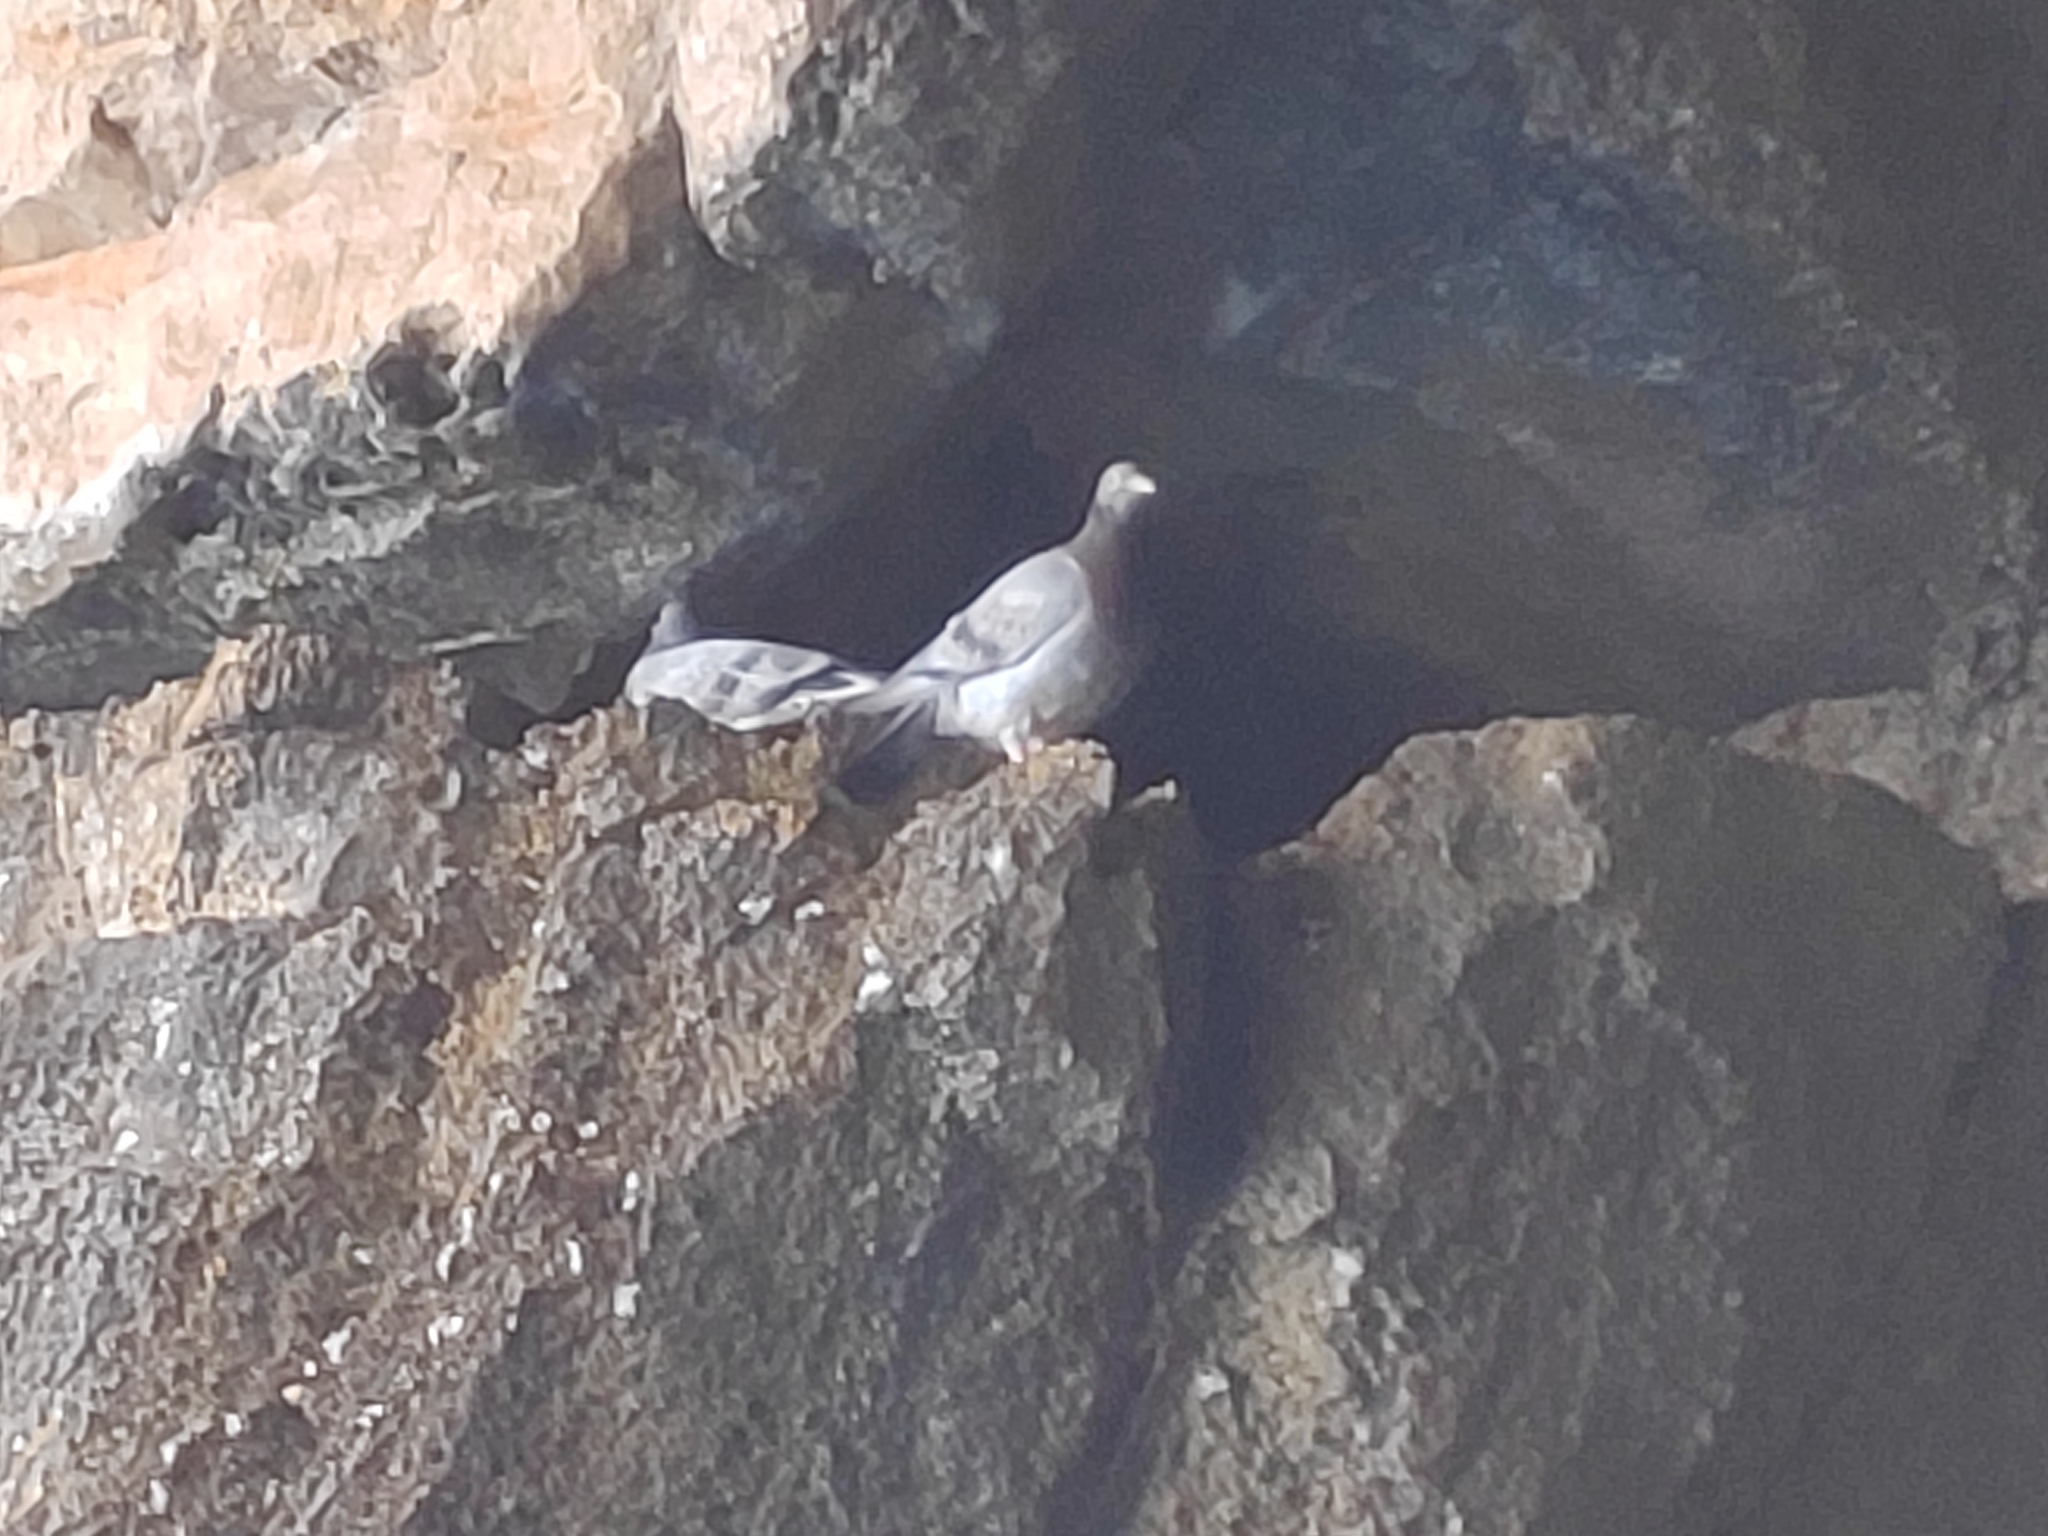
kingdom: Animalia
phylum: Chordata
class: Aves
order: Columbiformes
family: Columbidae
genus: Columba
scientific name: Columba livia
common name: Rock pigeon
